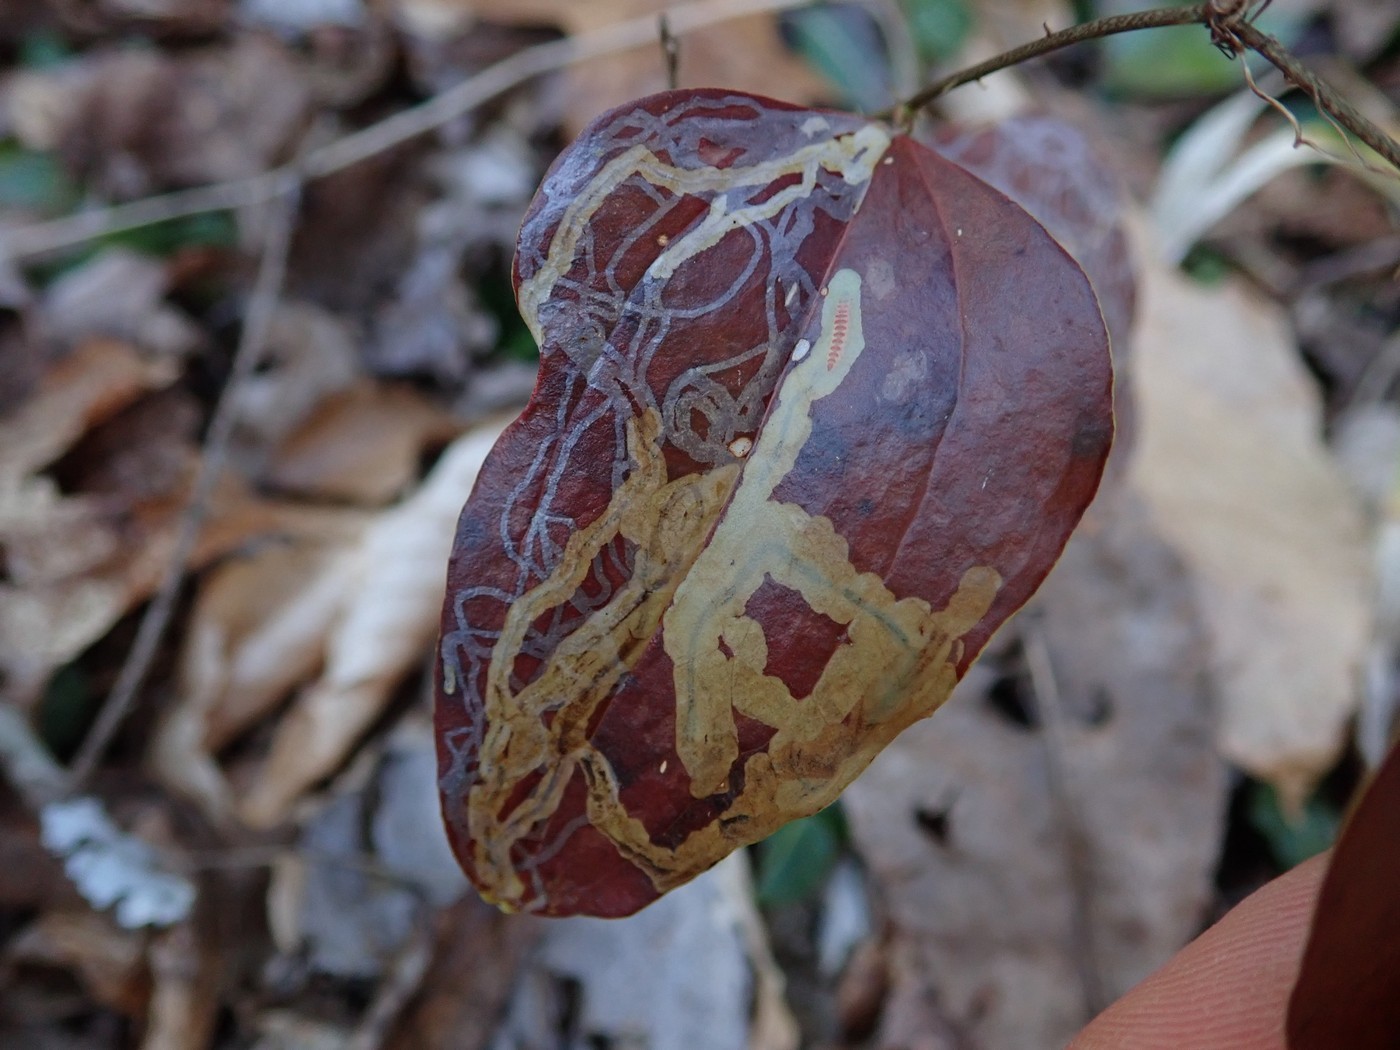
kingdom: Animalia
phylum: Arthropoda
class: Insecta
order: Lepidoptera
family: Gracillariidae
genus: Marmara
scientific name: Marmara smilacisella
